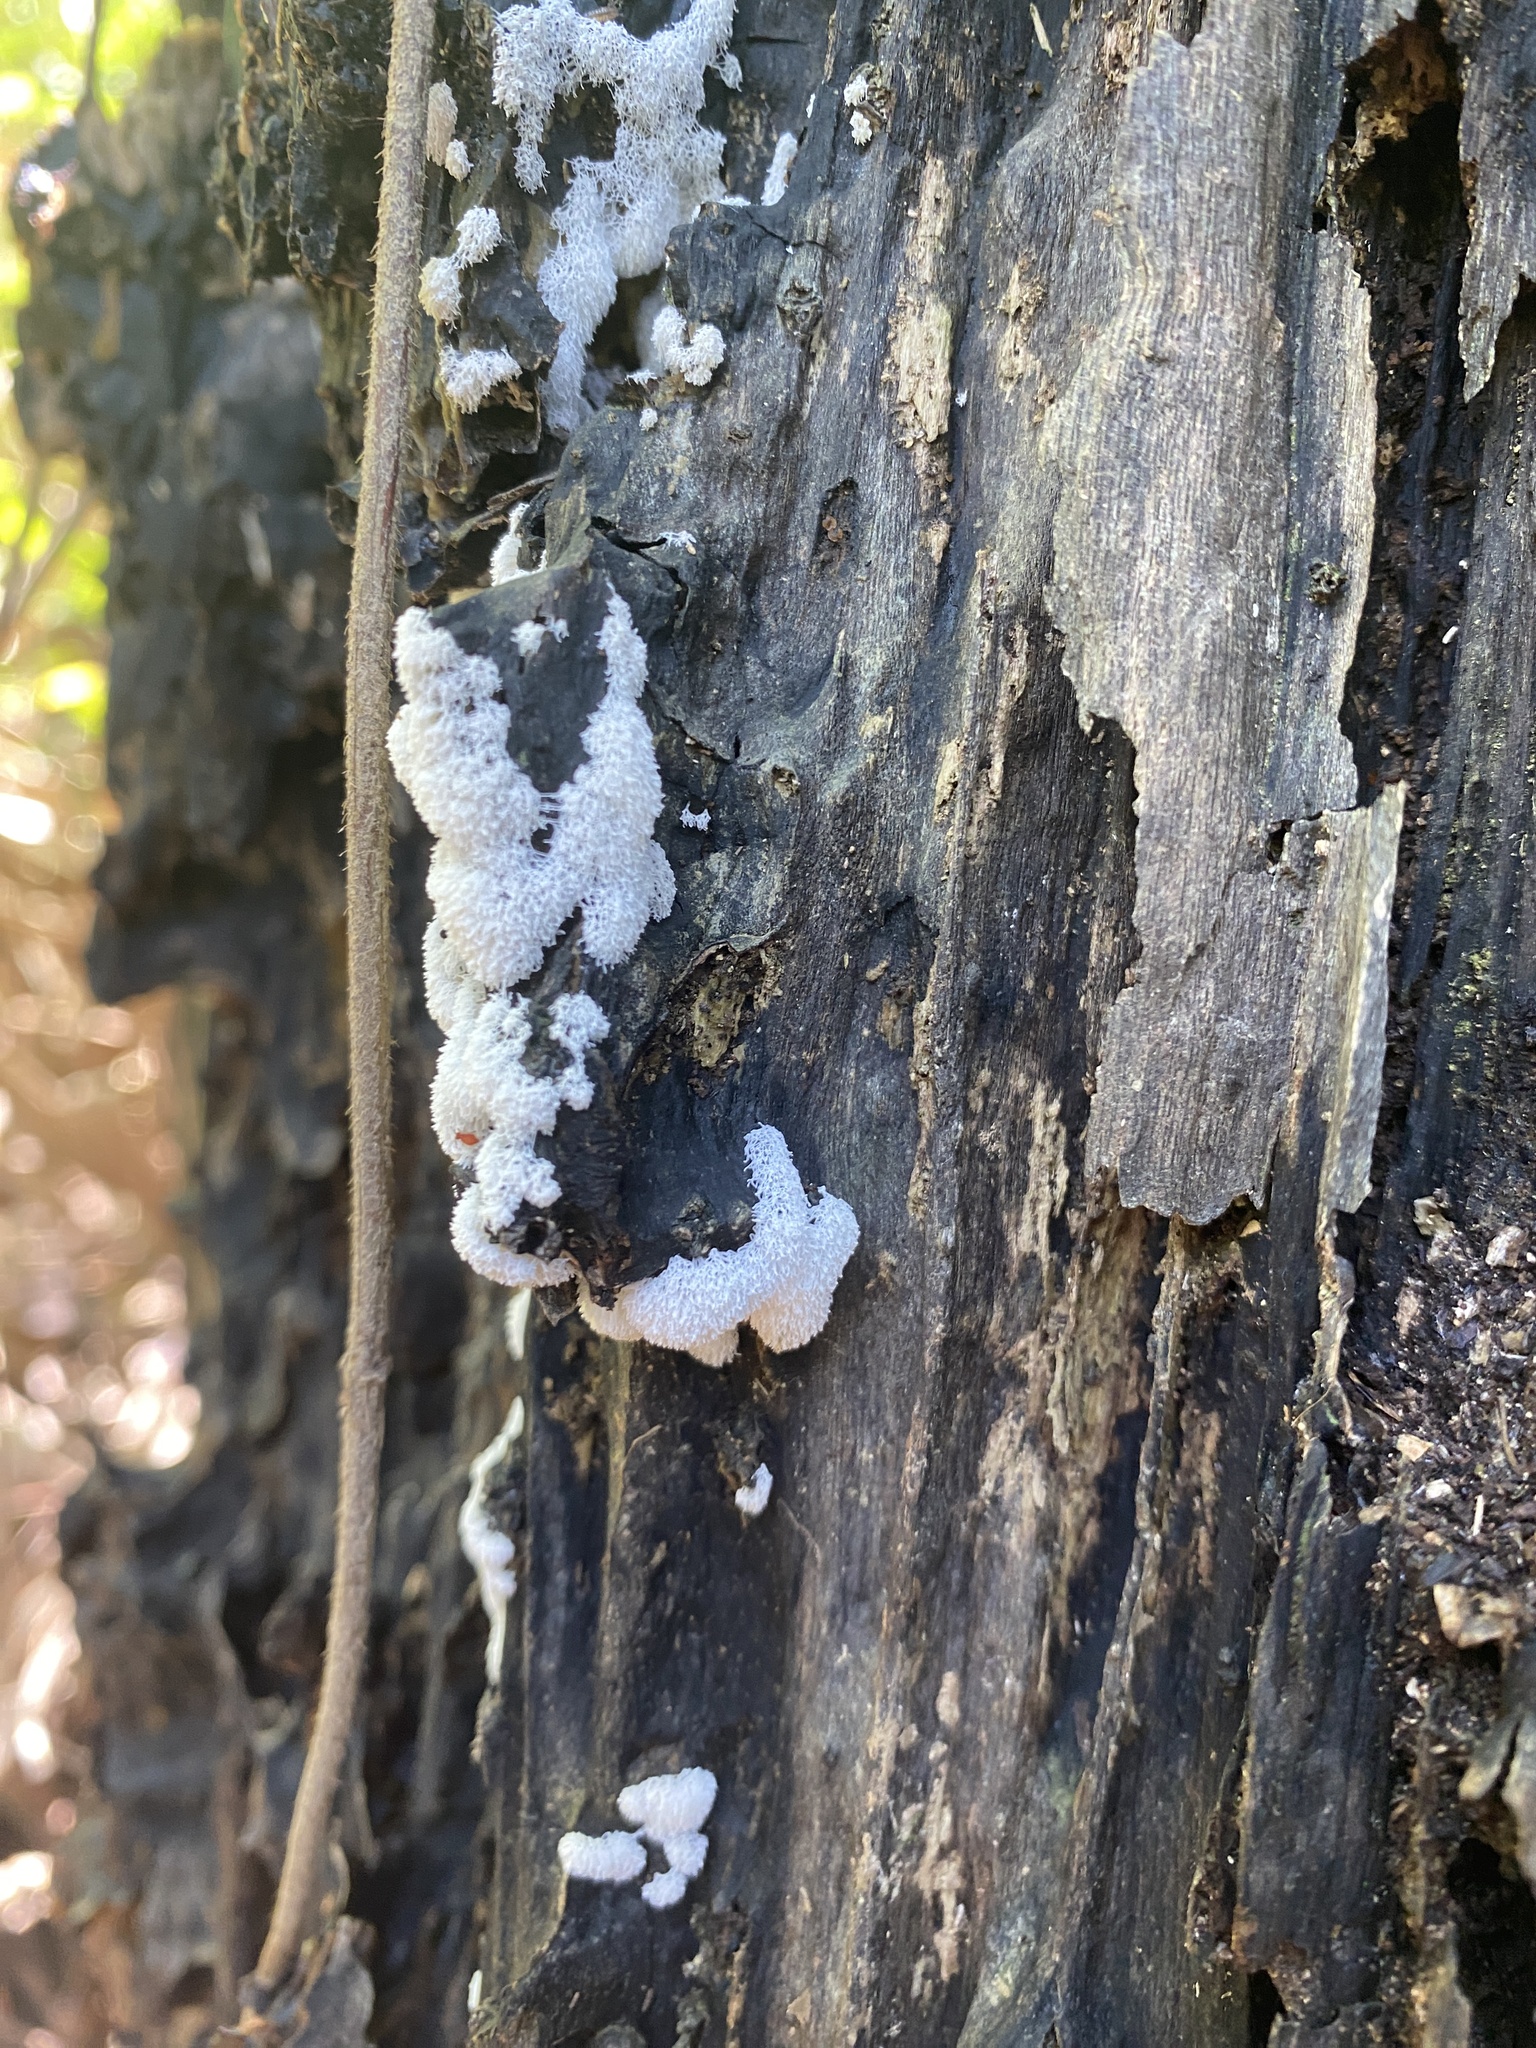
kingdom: Protozoa
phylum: Mycetozoa
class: Protosteliomycetes
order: Ceratiomyxales
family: Ceratiomyxaceae
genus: Ceratiomyxa
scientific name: Ceratiomyxa fruticulosa
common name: Honeycomb coral slime mold
